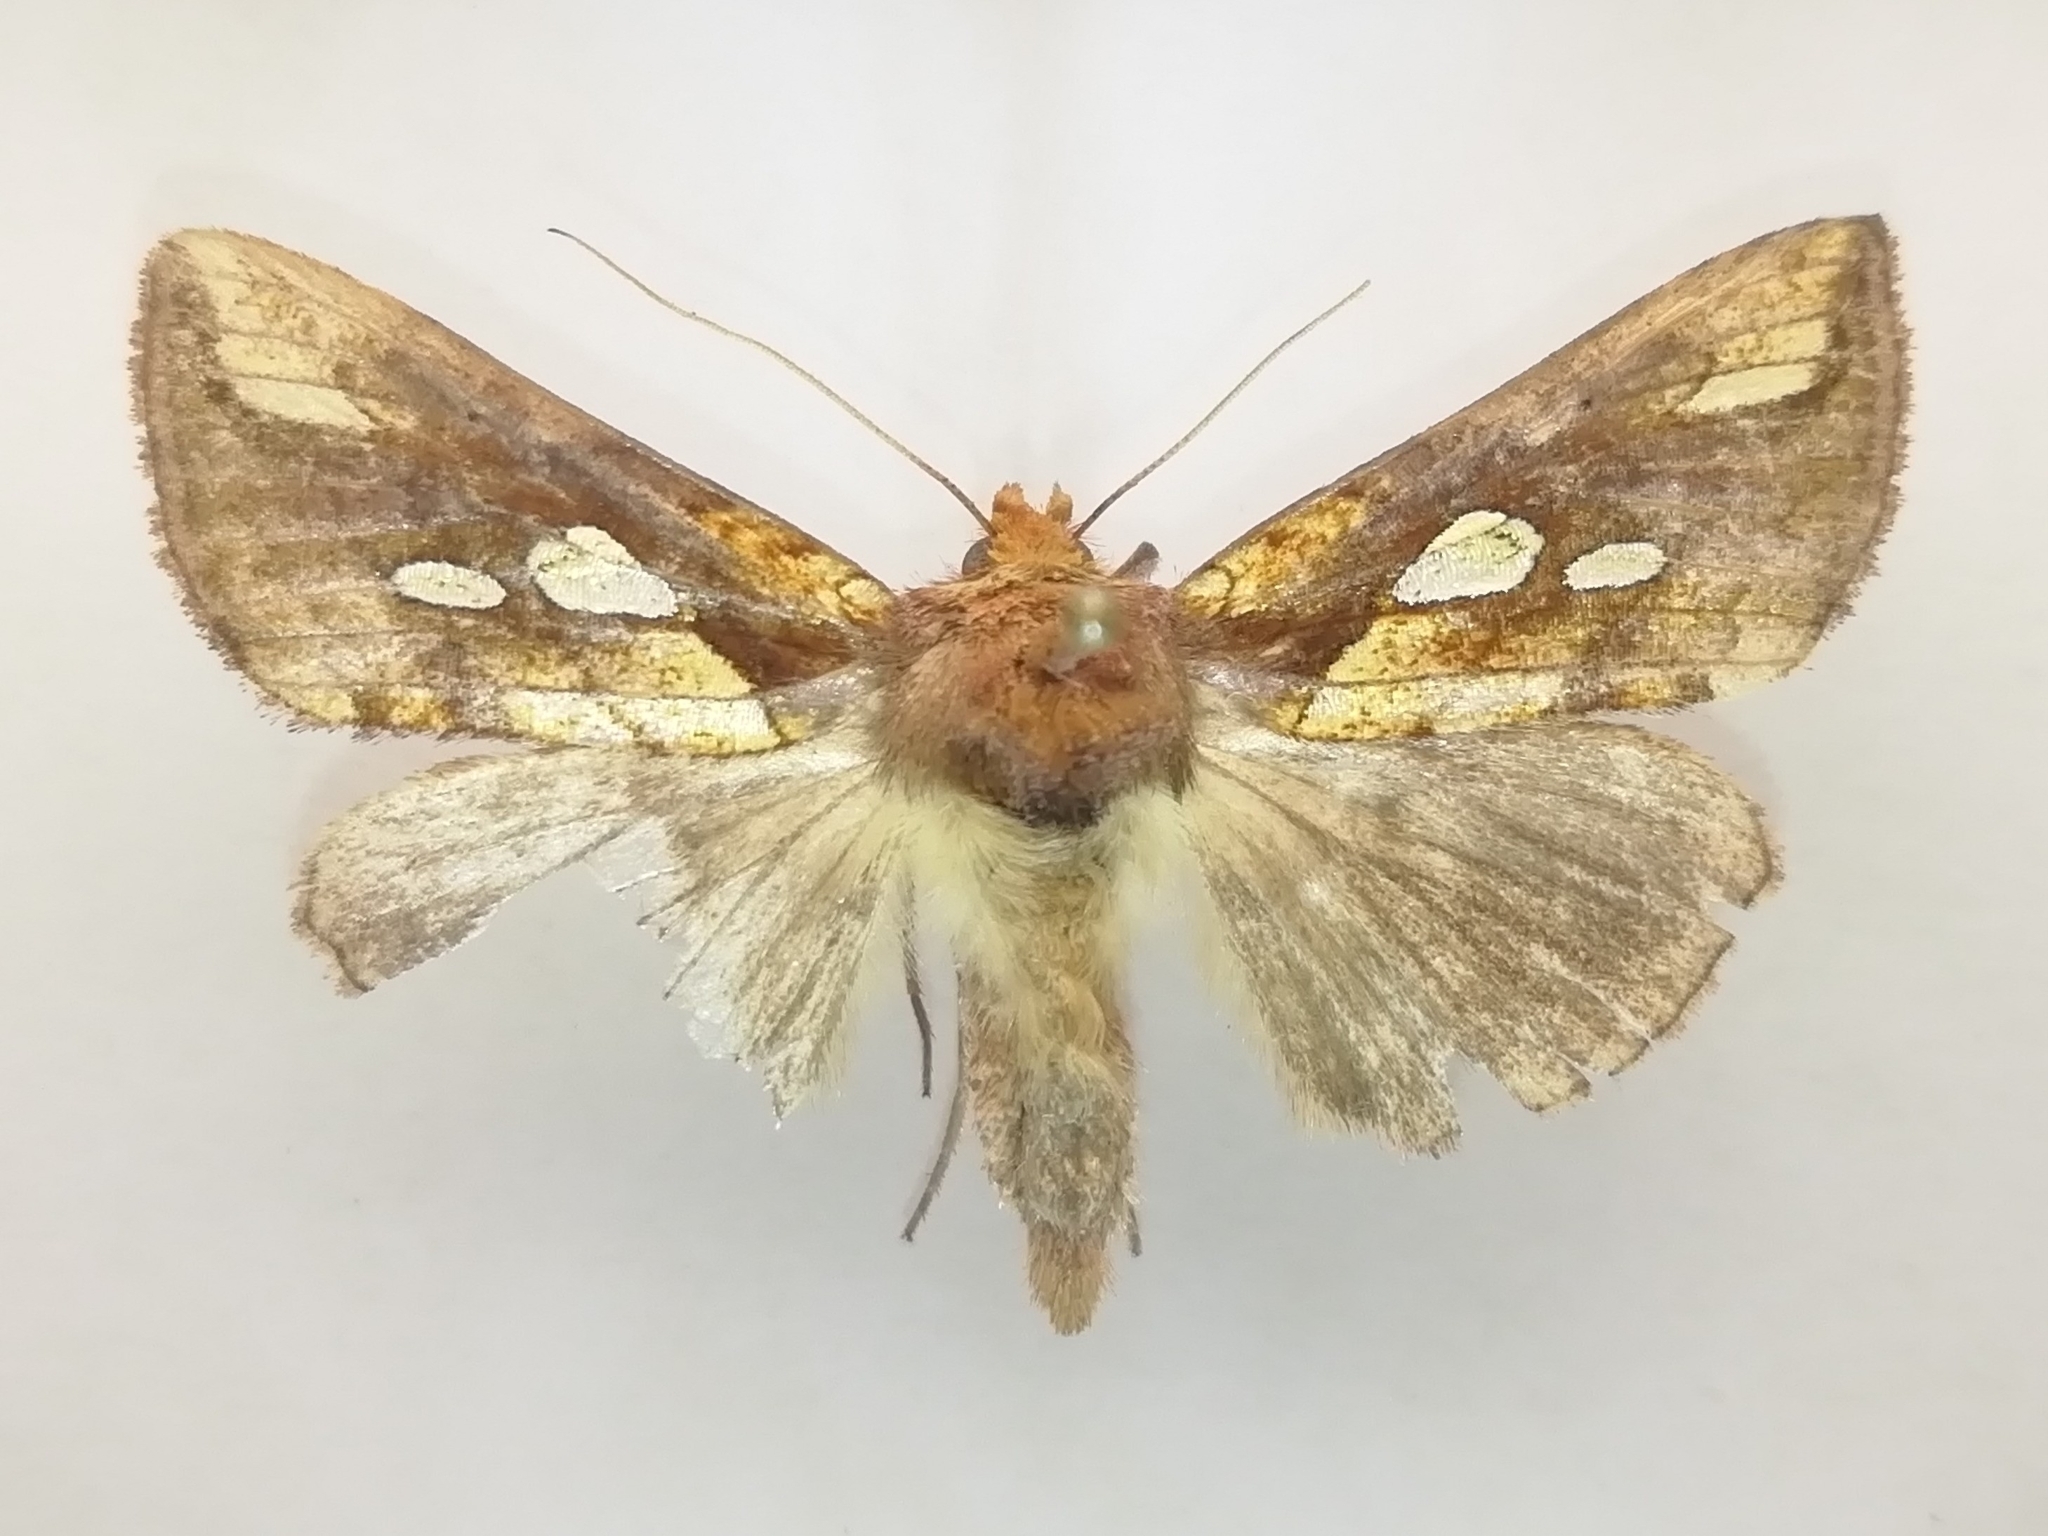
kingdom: Animalia
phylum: Arthropoda
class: Insecta
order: Lepidoptera
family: Noctuidae
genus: Plusia
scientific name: Plusia festucae
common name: Gold spot
